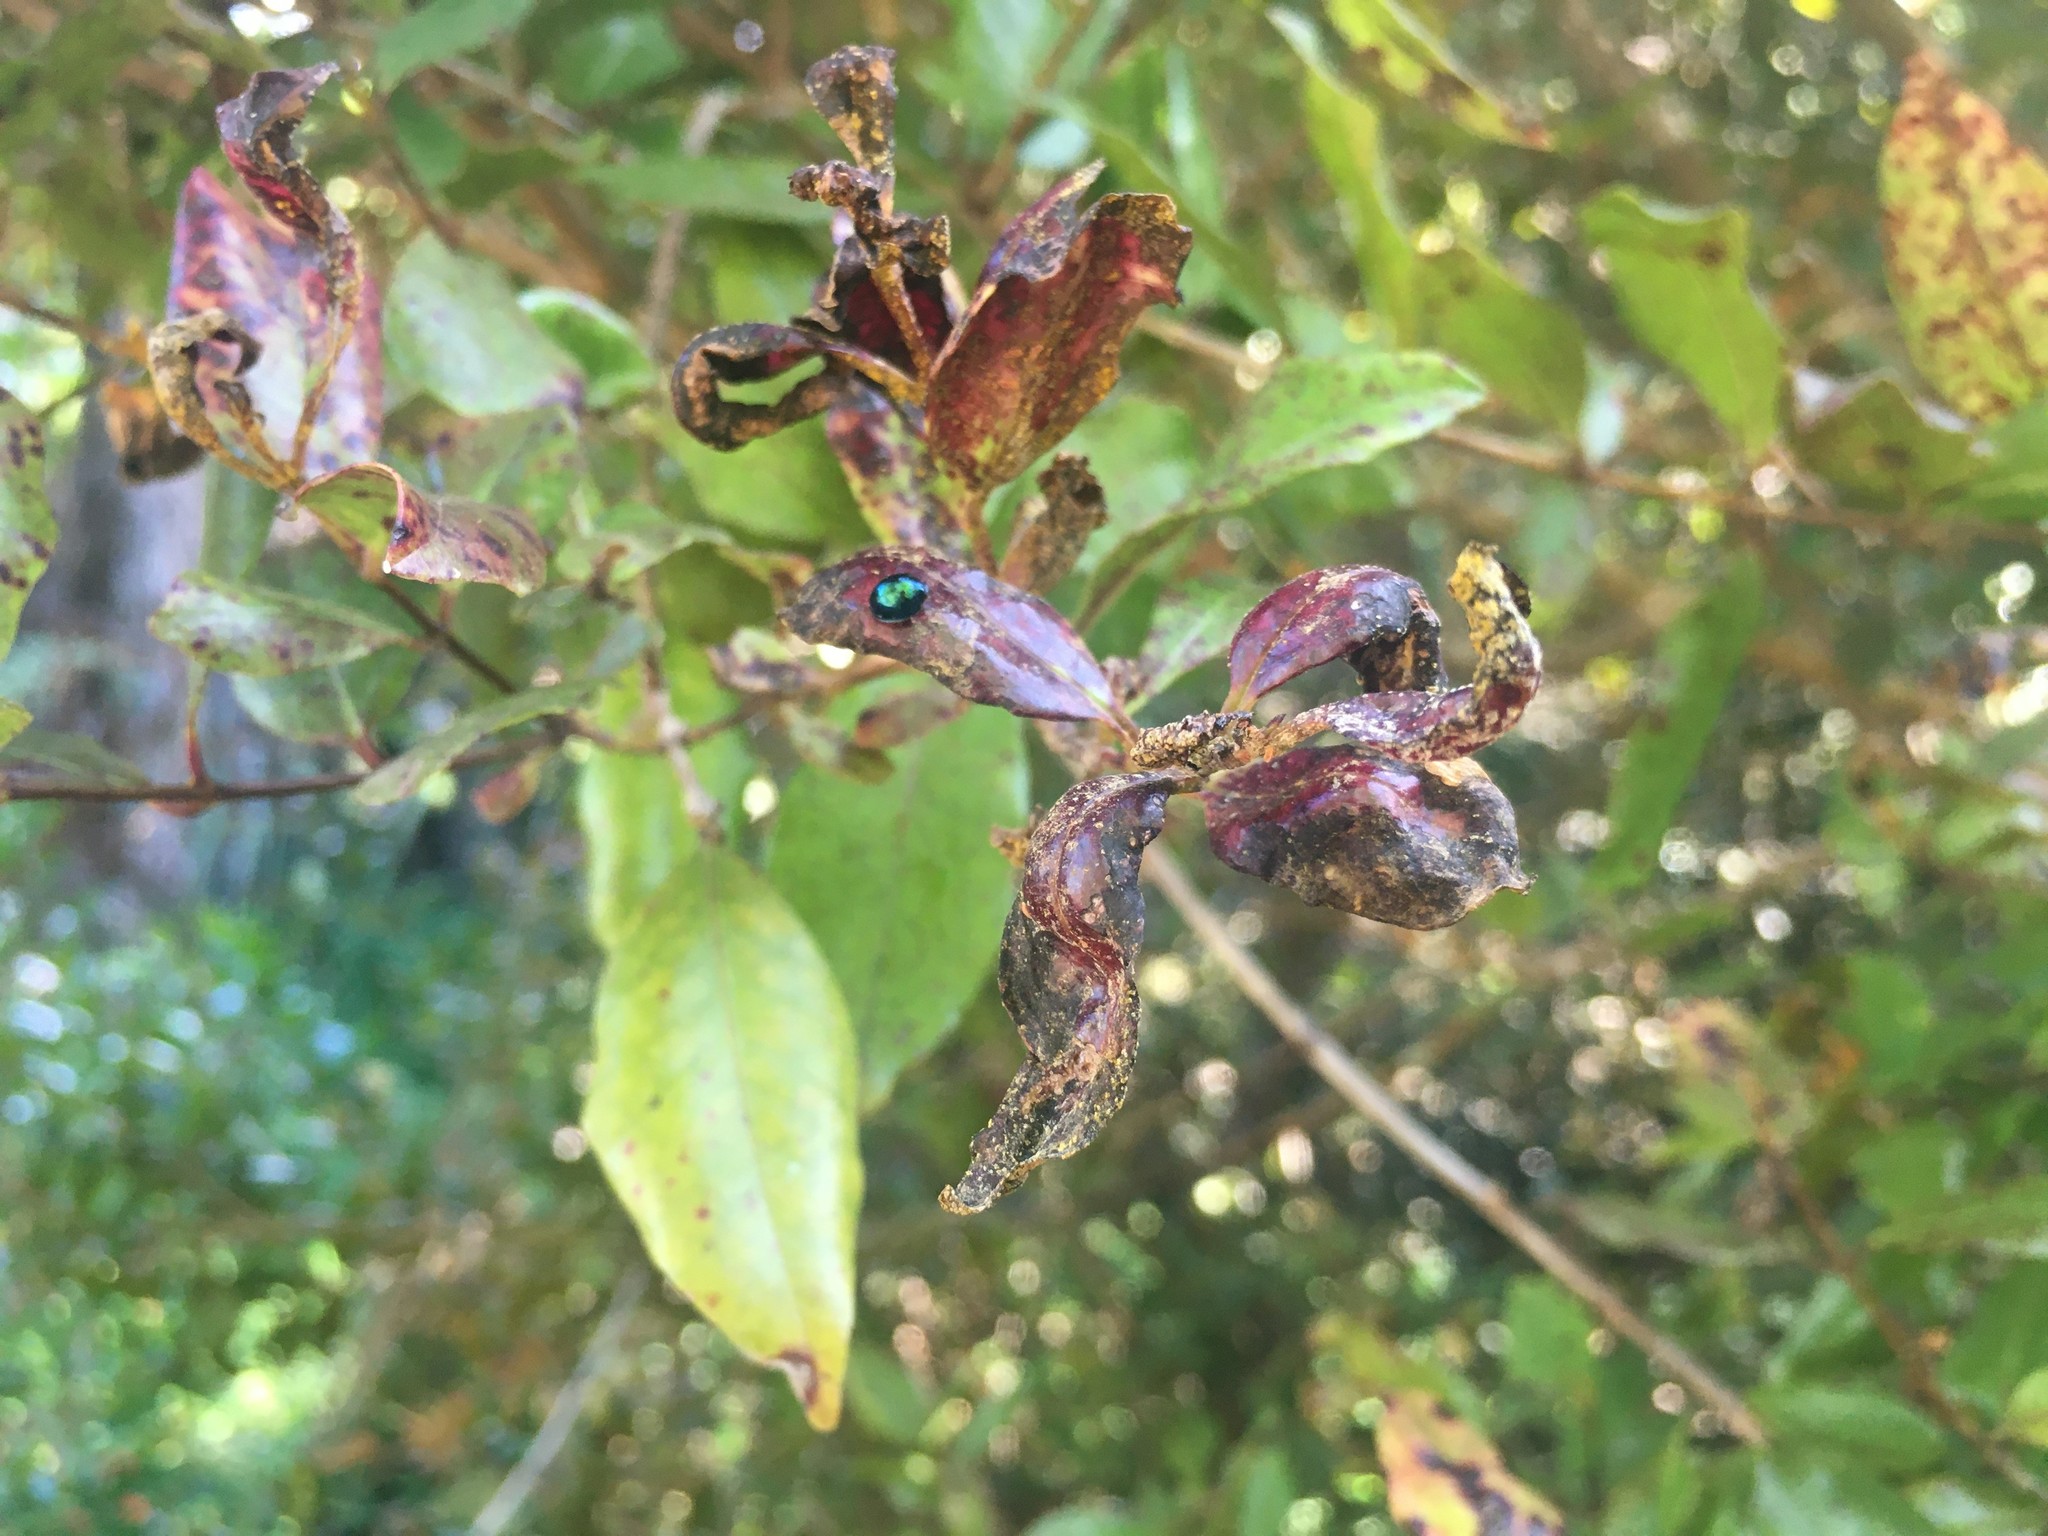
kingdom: Fungi
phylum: Basidiomycota
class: Pucciniomycetes
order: Pucciniales
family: Sphaerophragmiaceae
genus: Austropuccinia
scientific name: Austropuccinia psidii
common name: Myrtle rust
